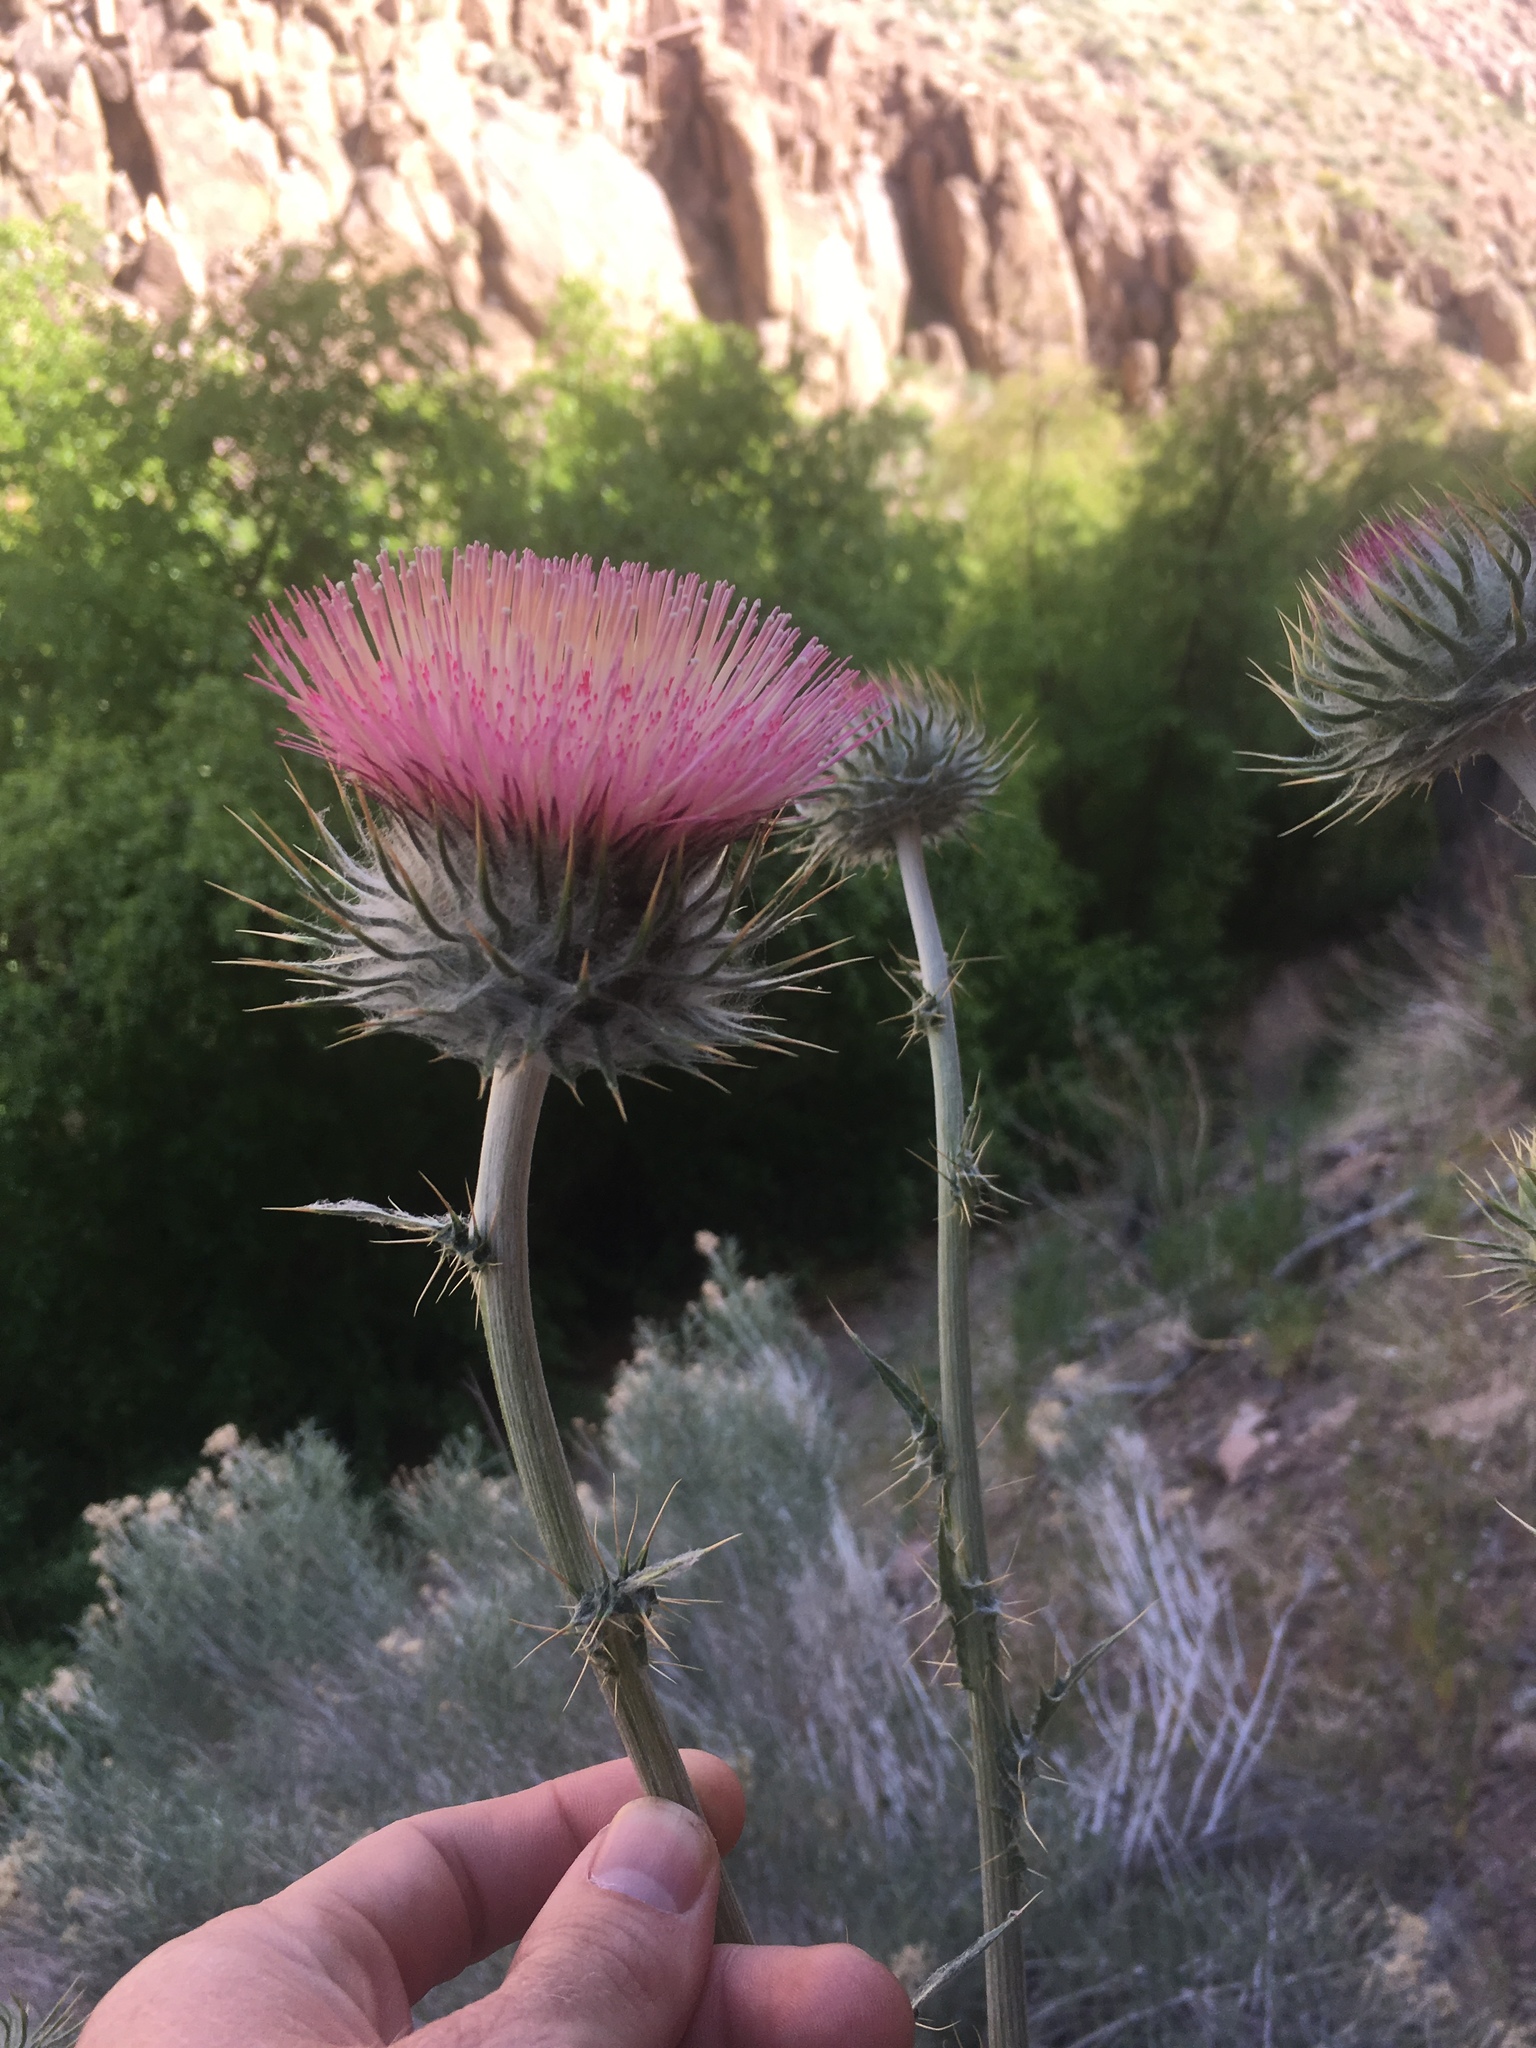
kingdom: Plantae
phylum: Tracheophyta
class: Magnoliopsida
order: Asterales
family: Asteraceae
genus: Cirsium
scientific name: Cirsium occidentale
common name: Western thistle
